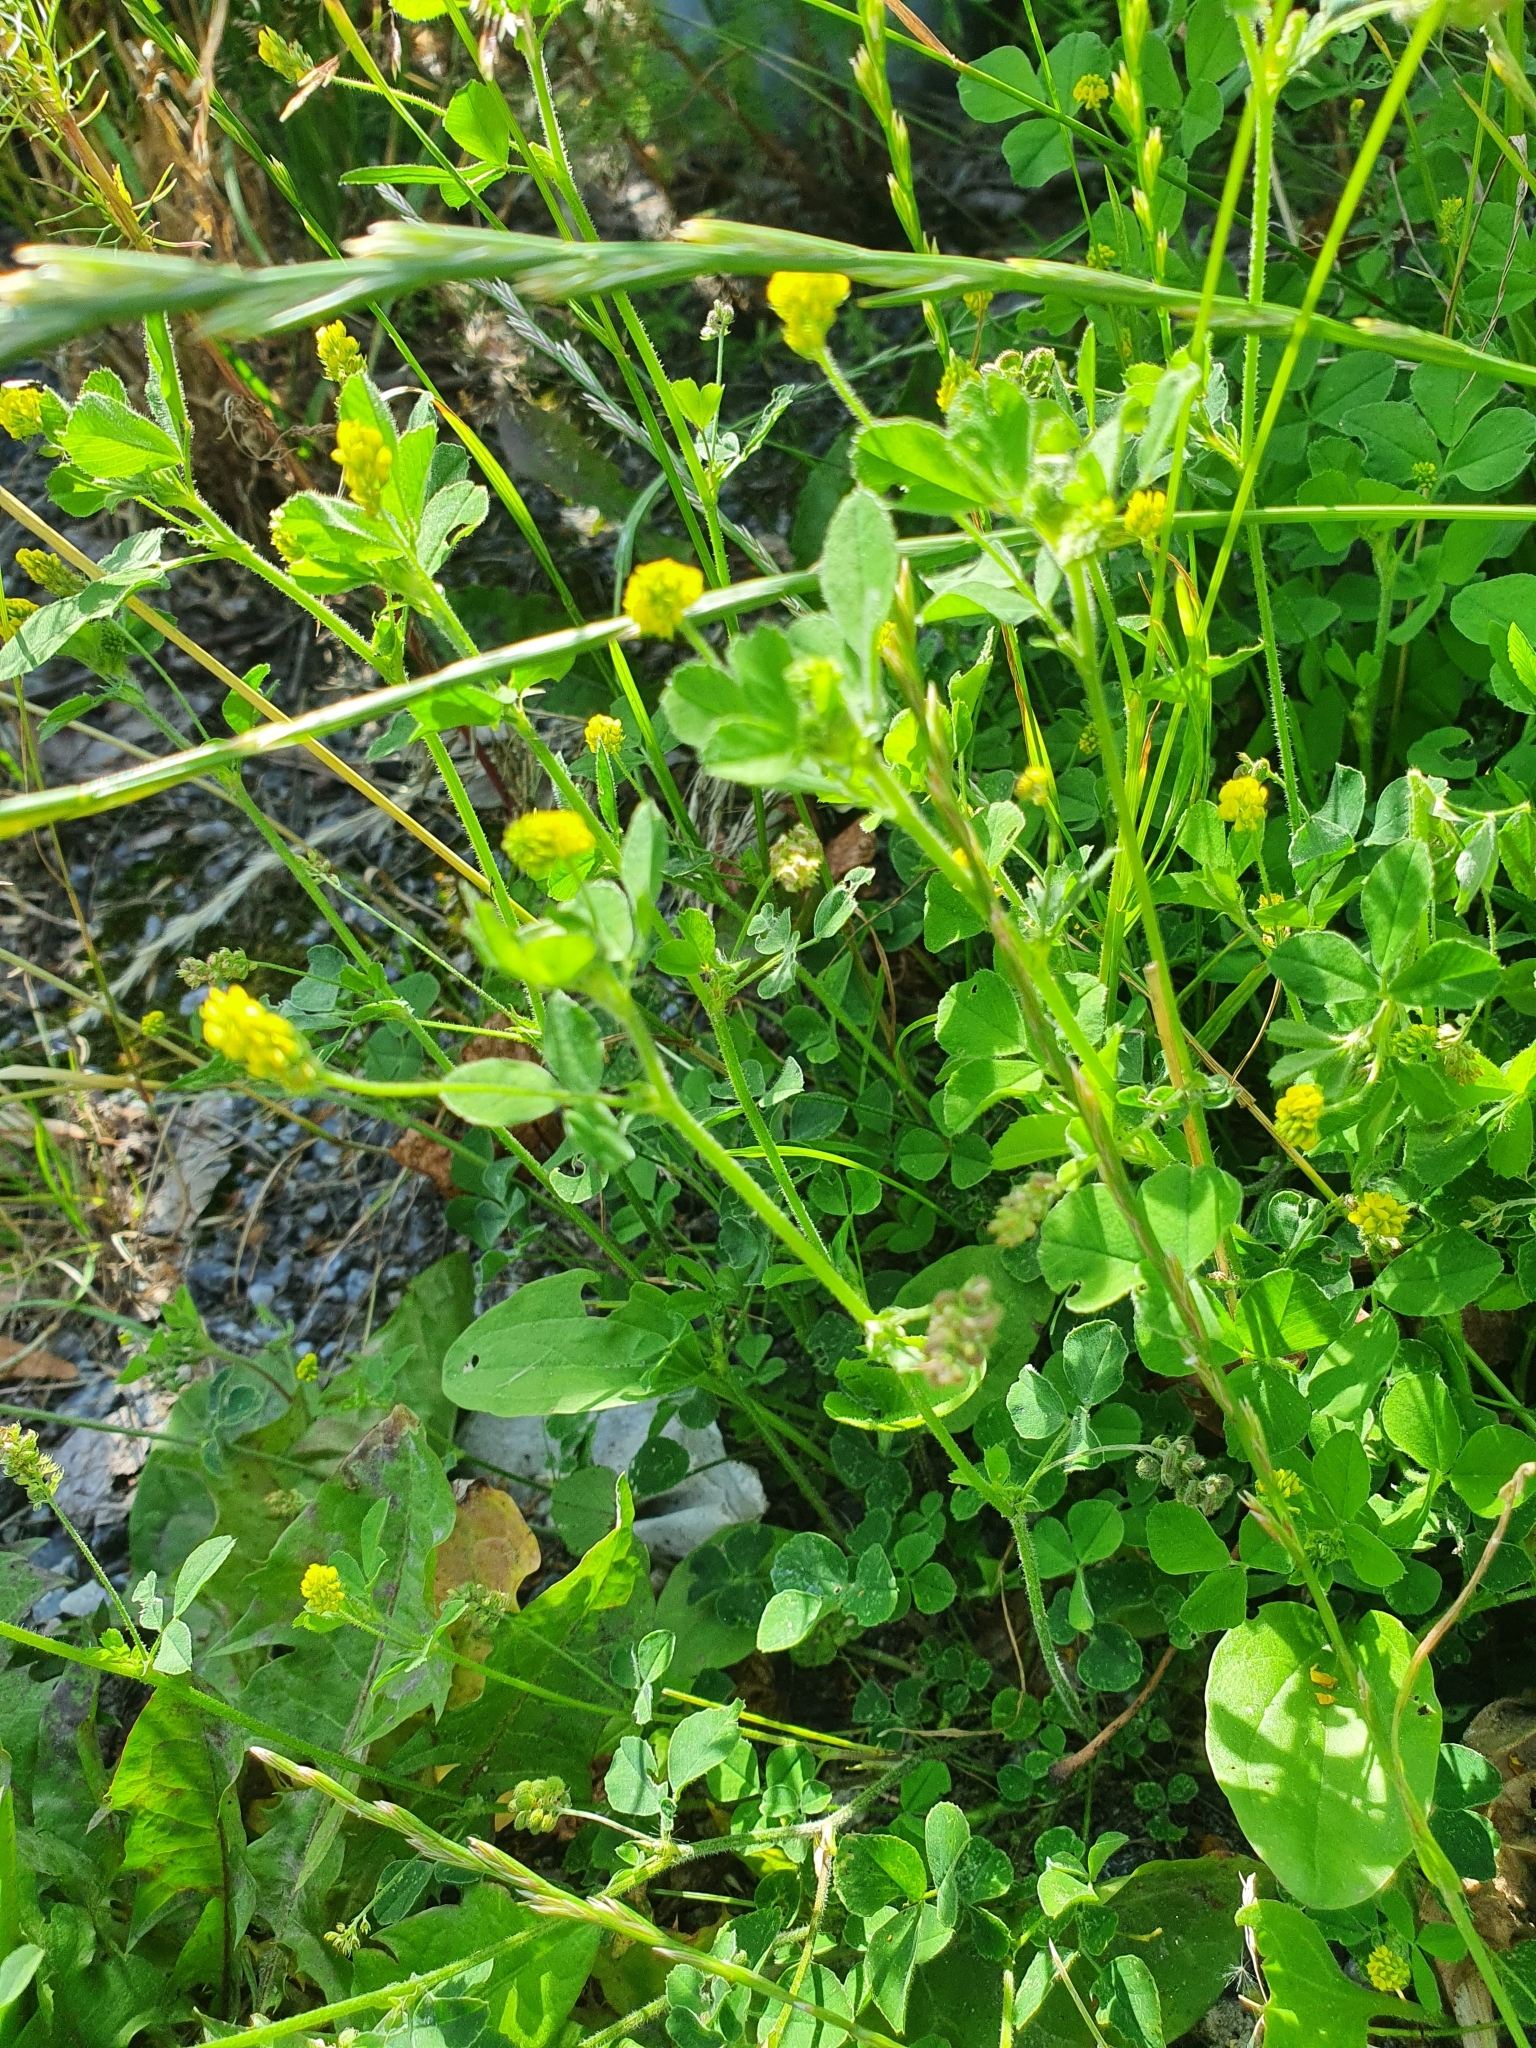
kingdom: Plantae
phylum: Tracheophyta
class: Magnoliopsida
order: Fabales
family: Fabaceae
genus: Medicago
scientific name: Medicago lupulina
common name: Black medick
